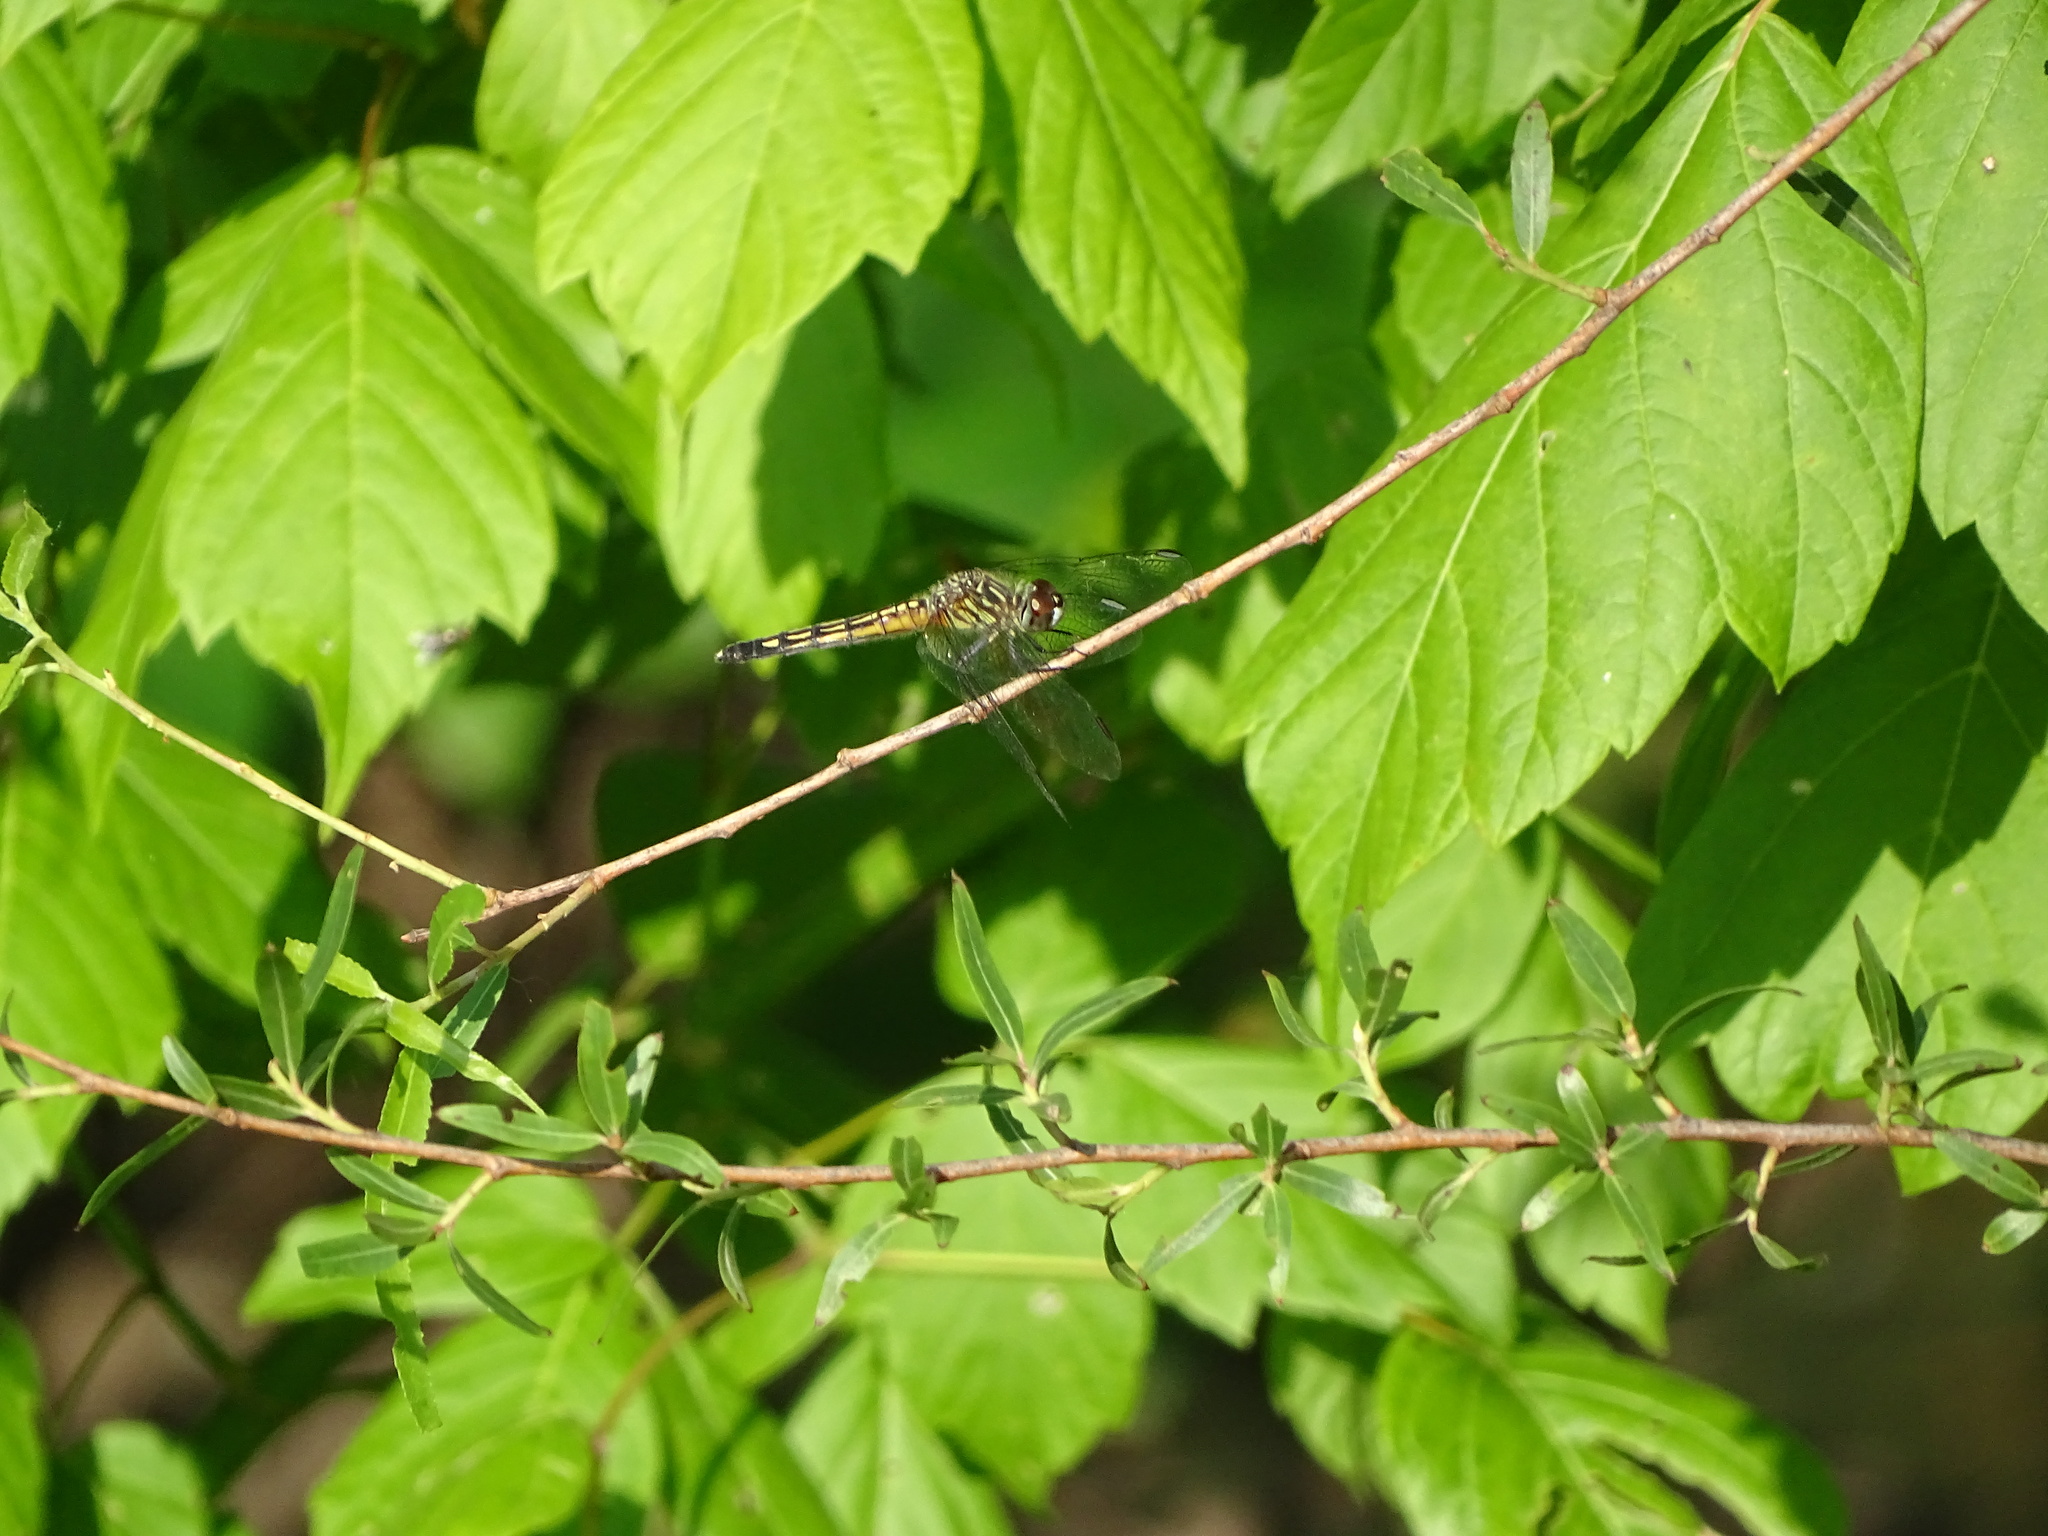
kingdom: Animalia
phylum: Arthropoda
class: Insecta
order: Odonata
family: Libellulidae
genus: Pachydiplax
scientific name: Pachydiplax longipennis
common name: Blue dasher
